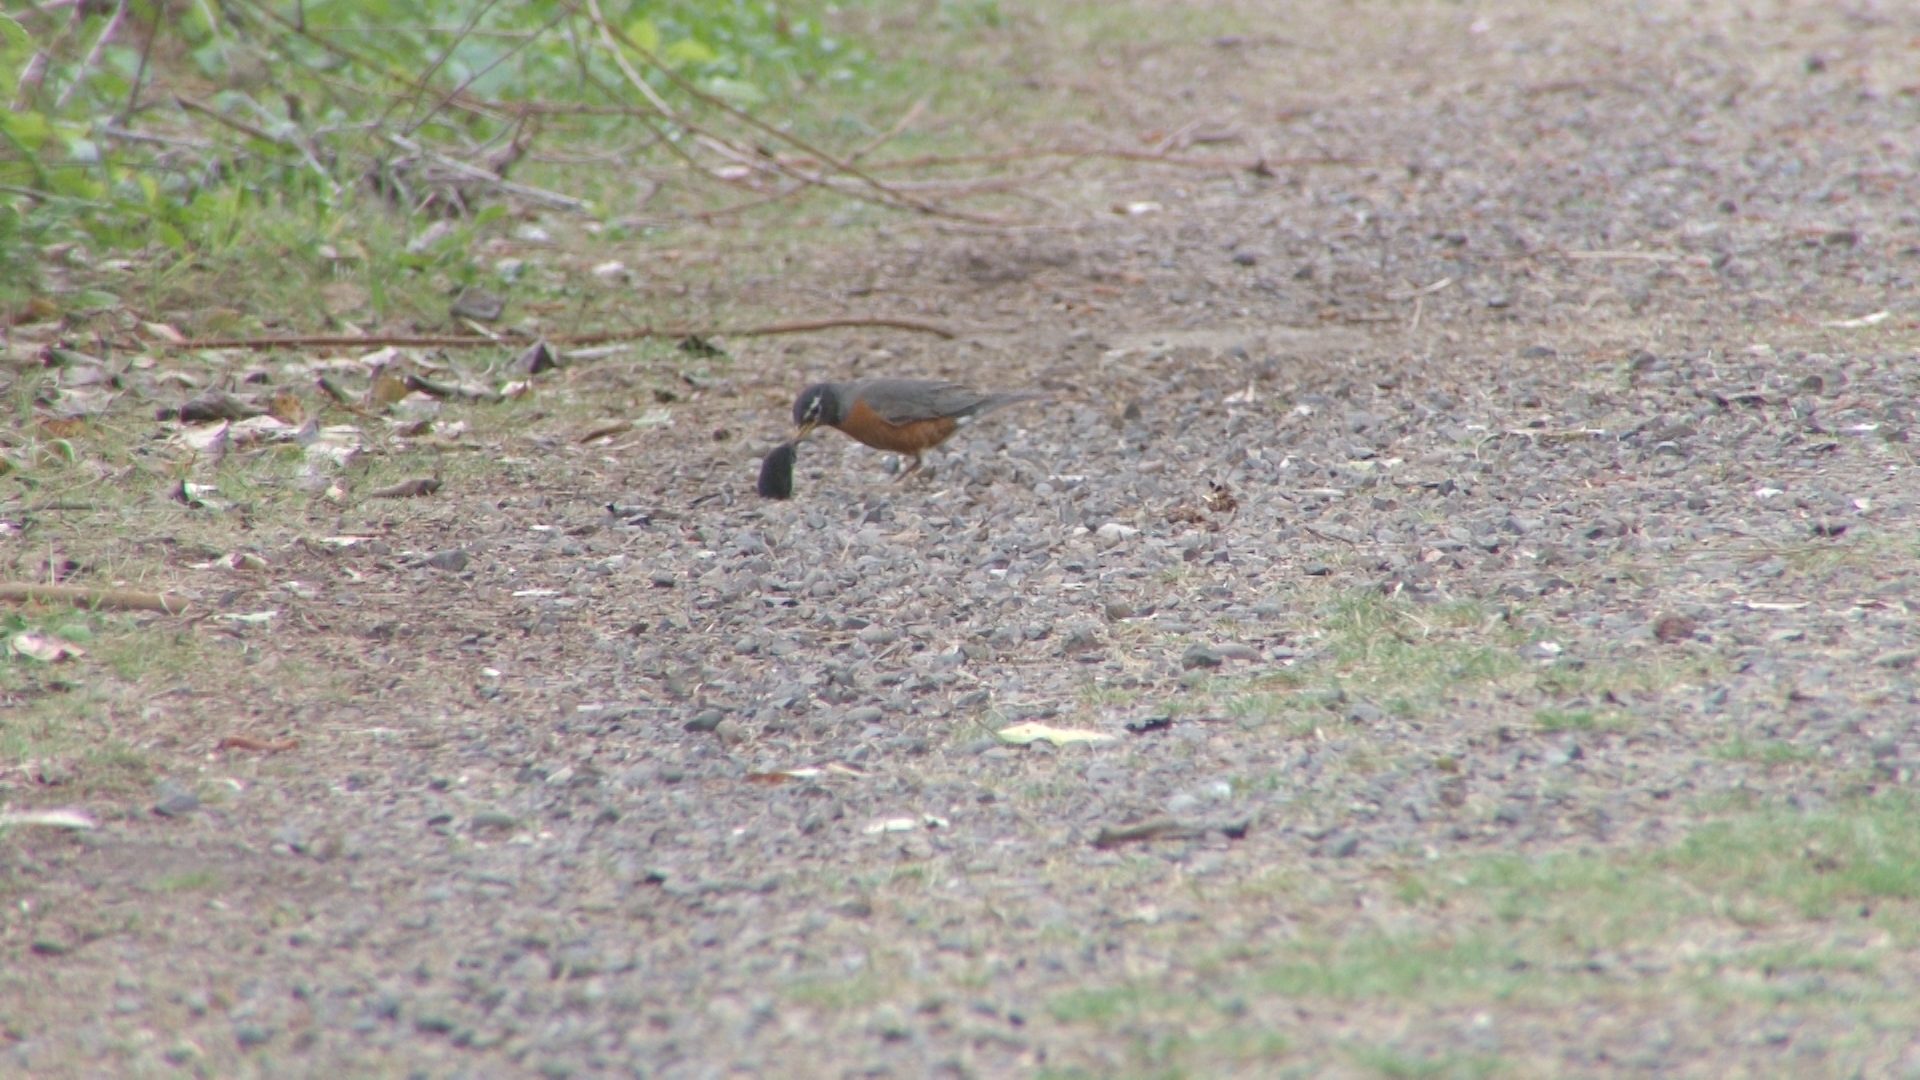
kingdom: Animalia
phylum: Chordata
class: Aves
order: Passeriformes
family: Turdidae
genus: Turdus
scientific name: Turdus migratorius
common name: American robin
